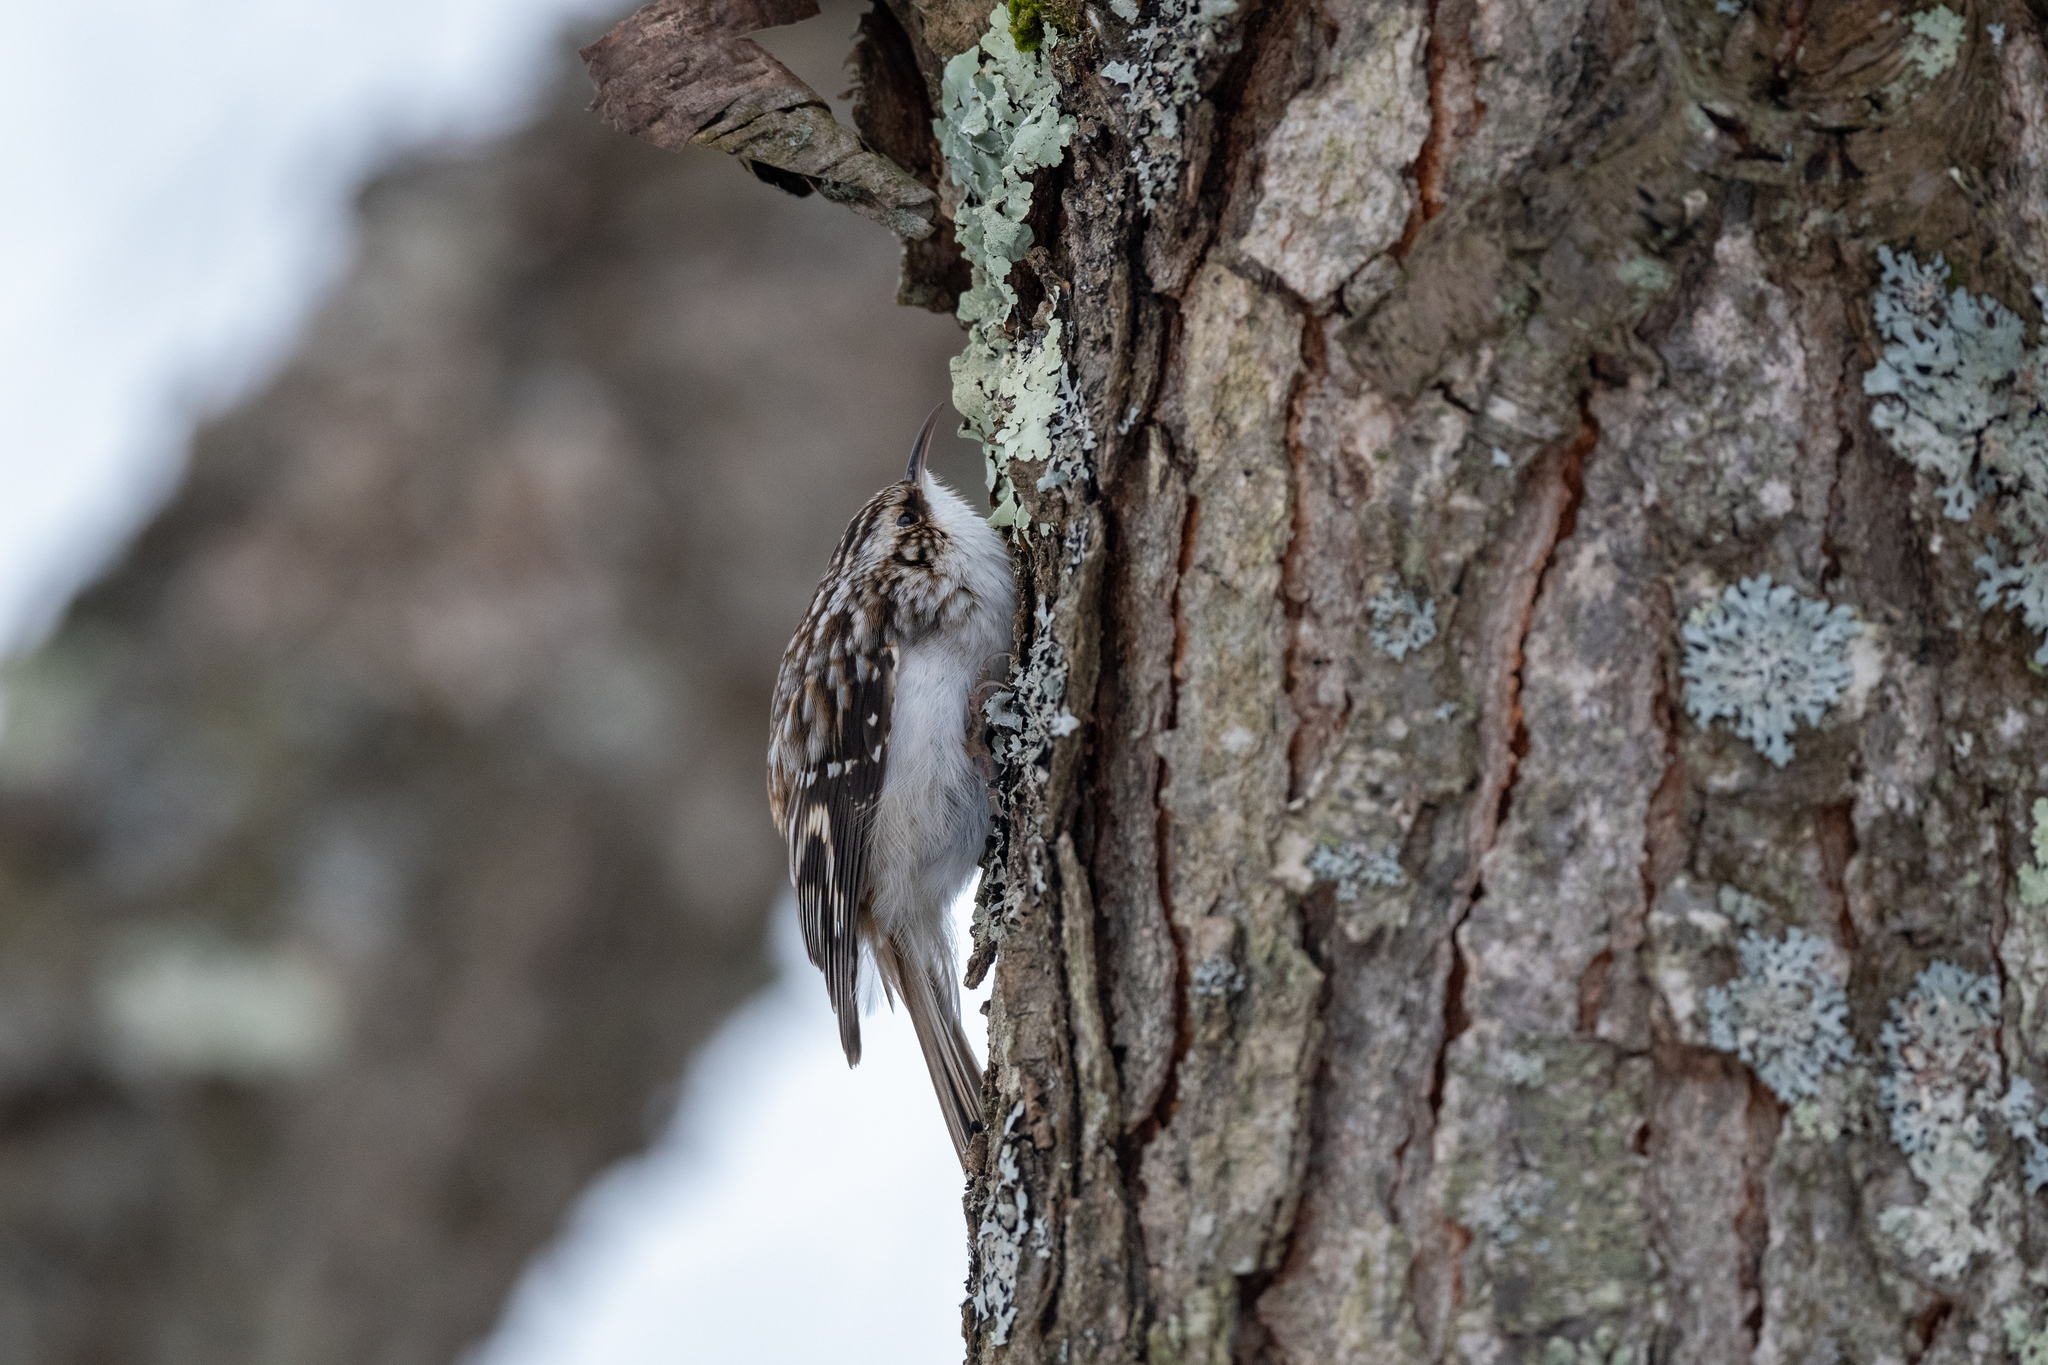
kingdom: Animalia
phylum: Chordata
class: Aves
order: Passeriformes
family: Certhiidae
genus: Certhia
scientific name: Certhia americana
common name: Brown creeper
